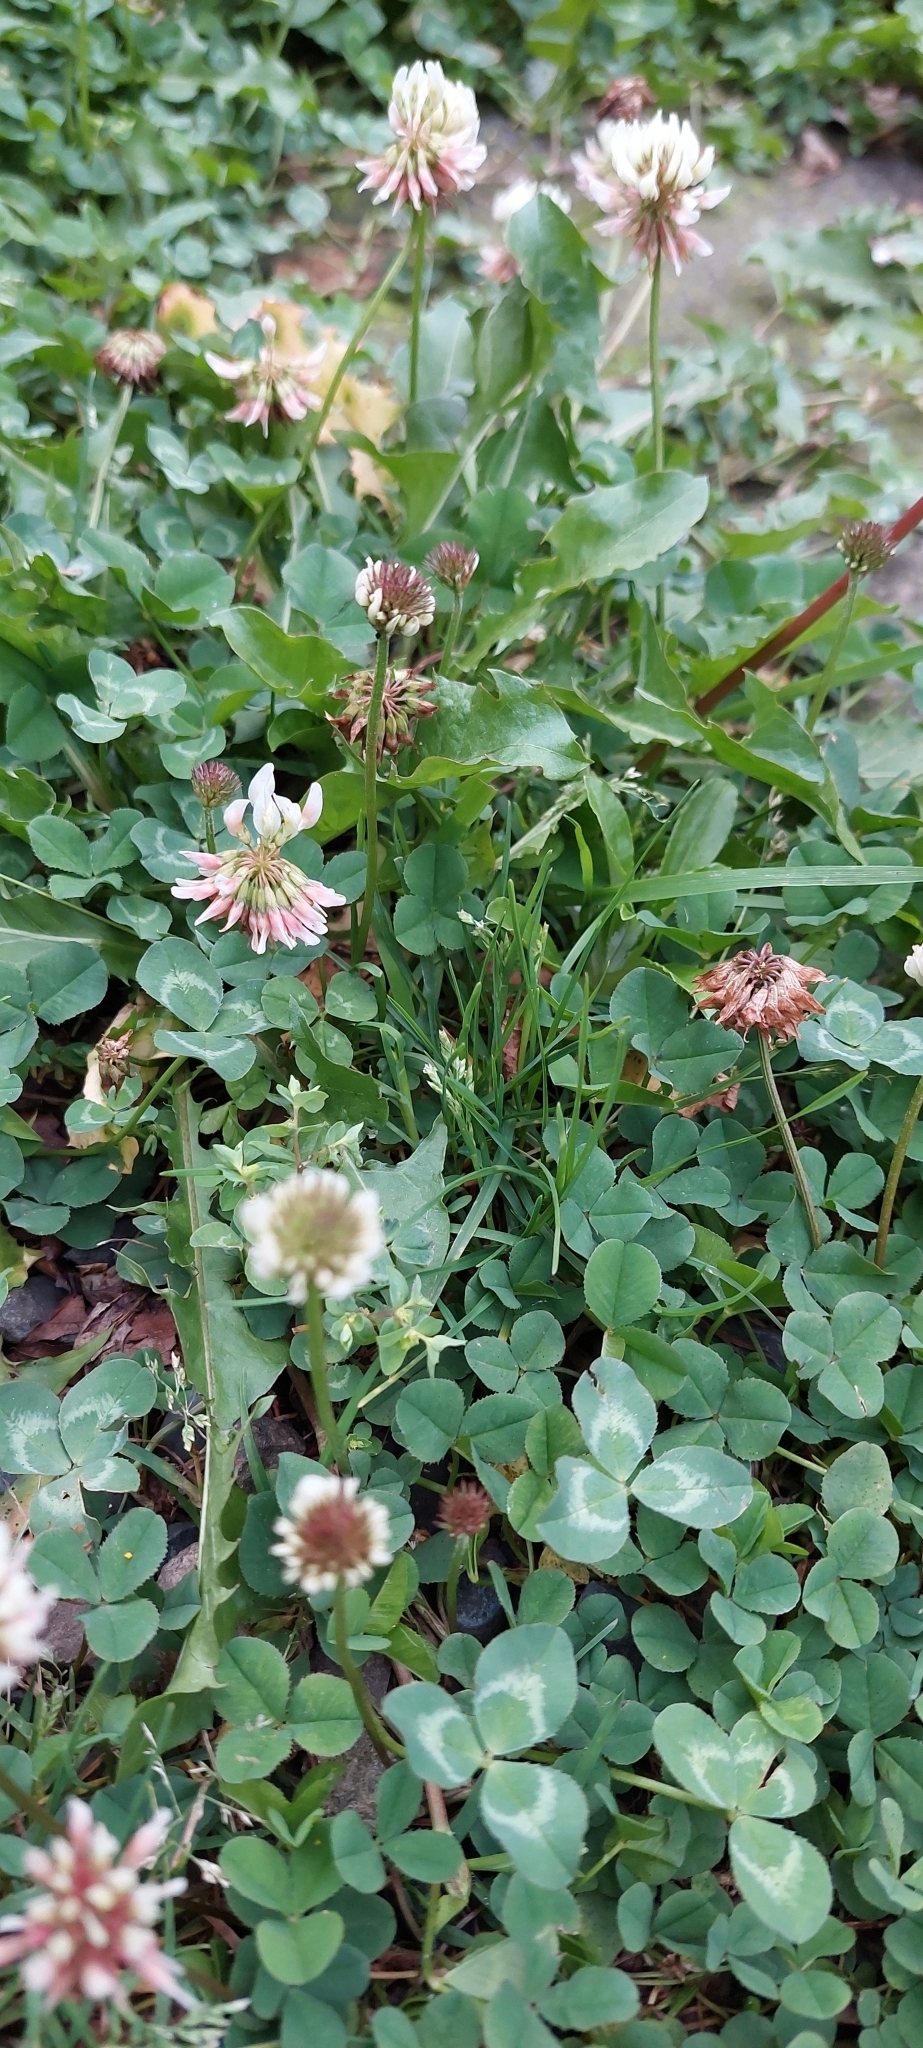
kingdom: Plantae
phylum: Tracheophyta
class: Magnoliopsida
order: Fabales
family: Fabaceae
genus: Trifolium
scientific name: Trifolium repens
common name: White clover
